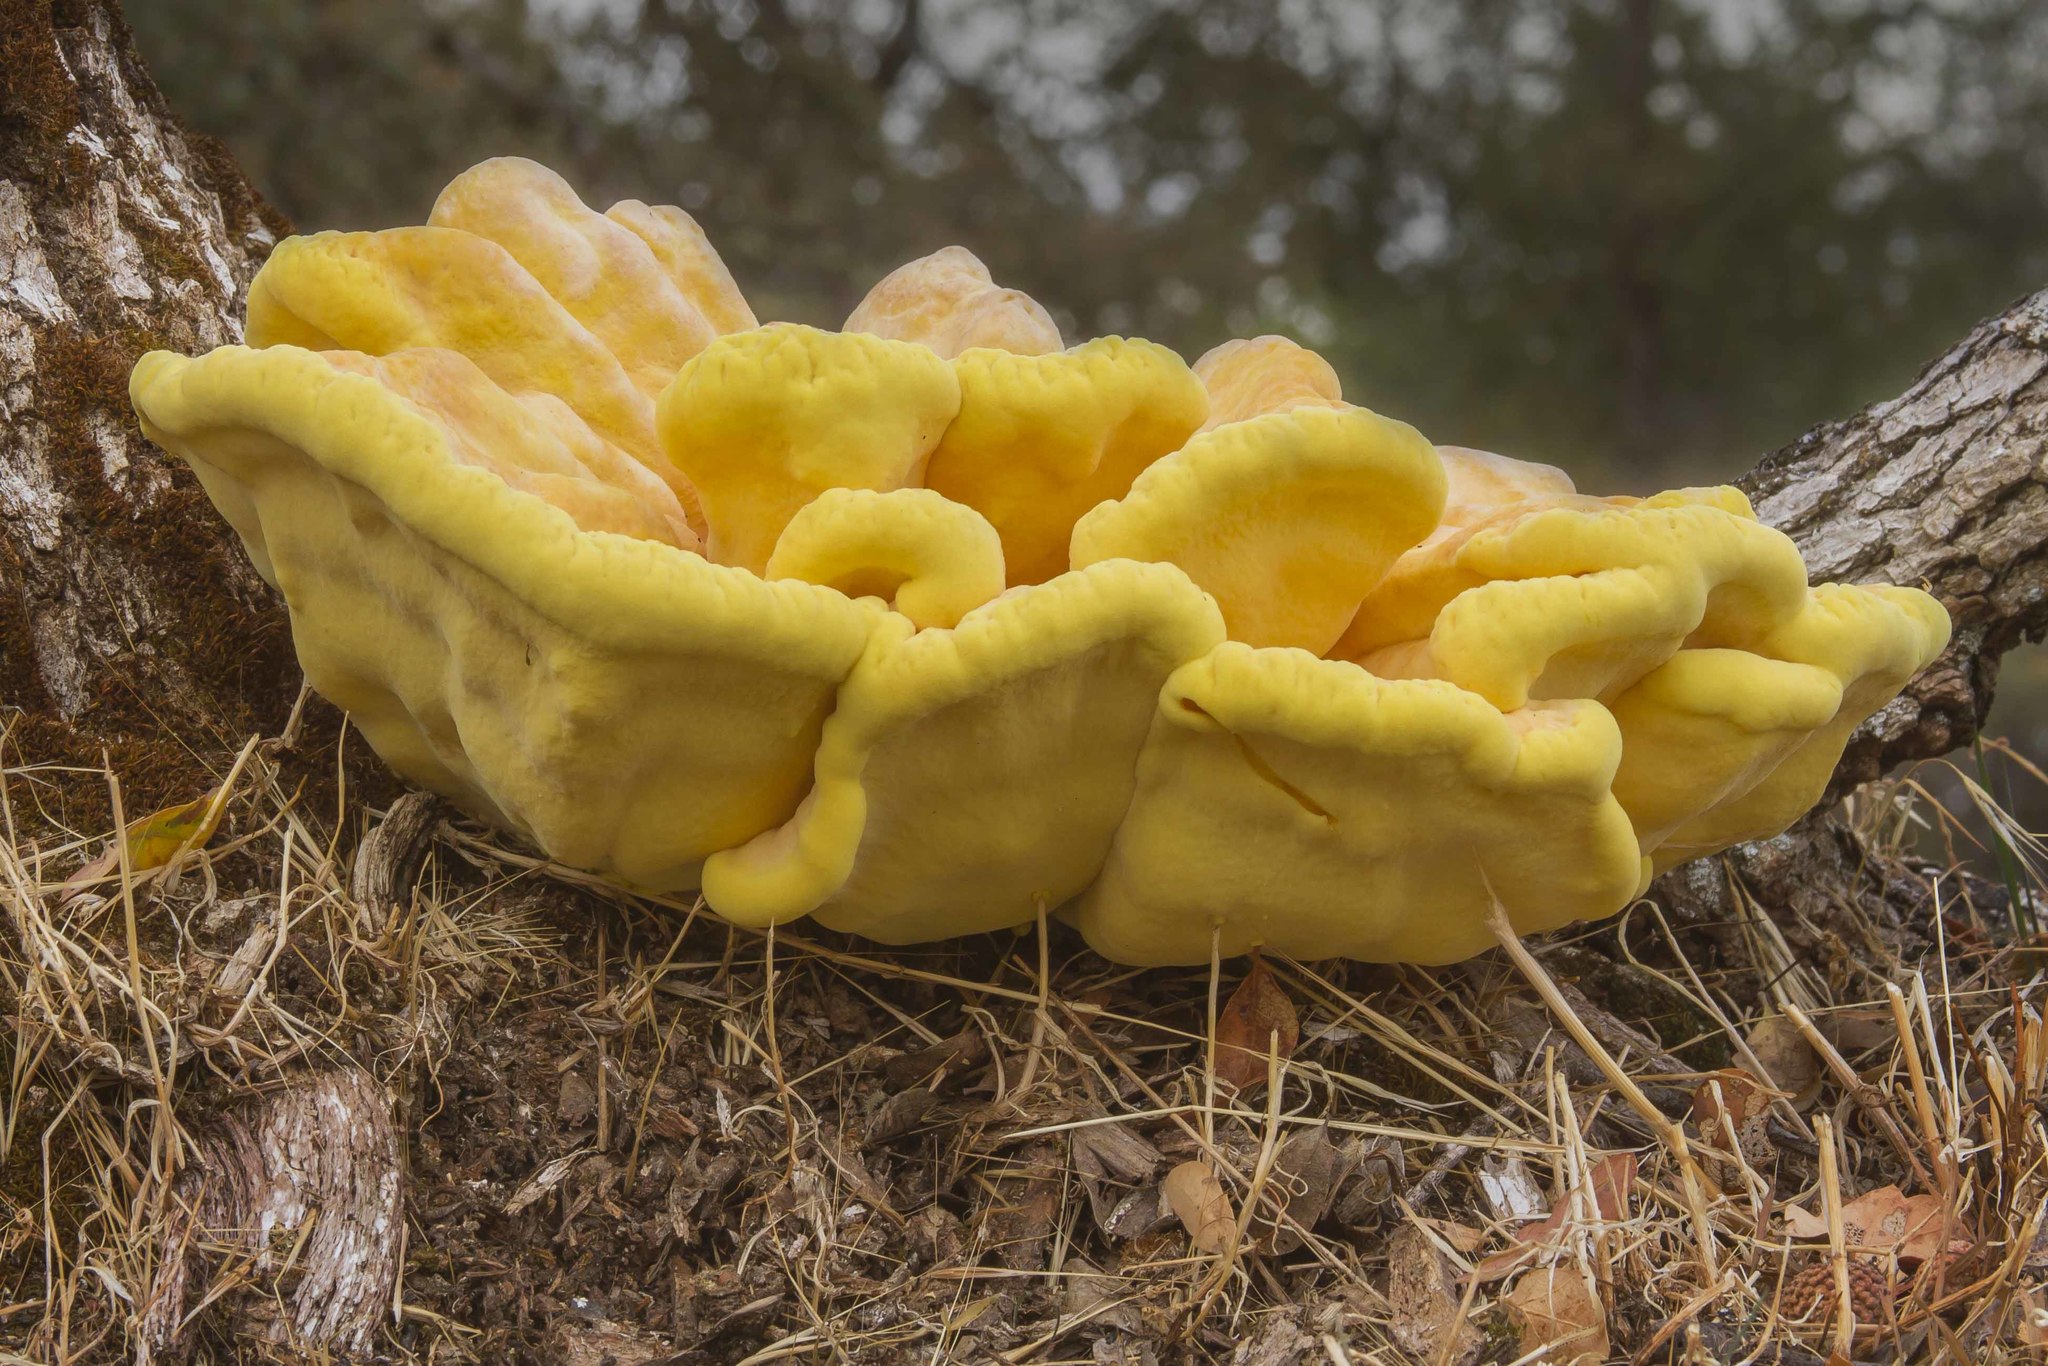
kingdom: Fungi
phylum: Basidiomycota
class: Agaricomycetes
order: Polyporales
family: Laetiporaceae
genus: Laetiporus
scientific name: Laetiporus gilbertsonii
